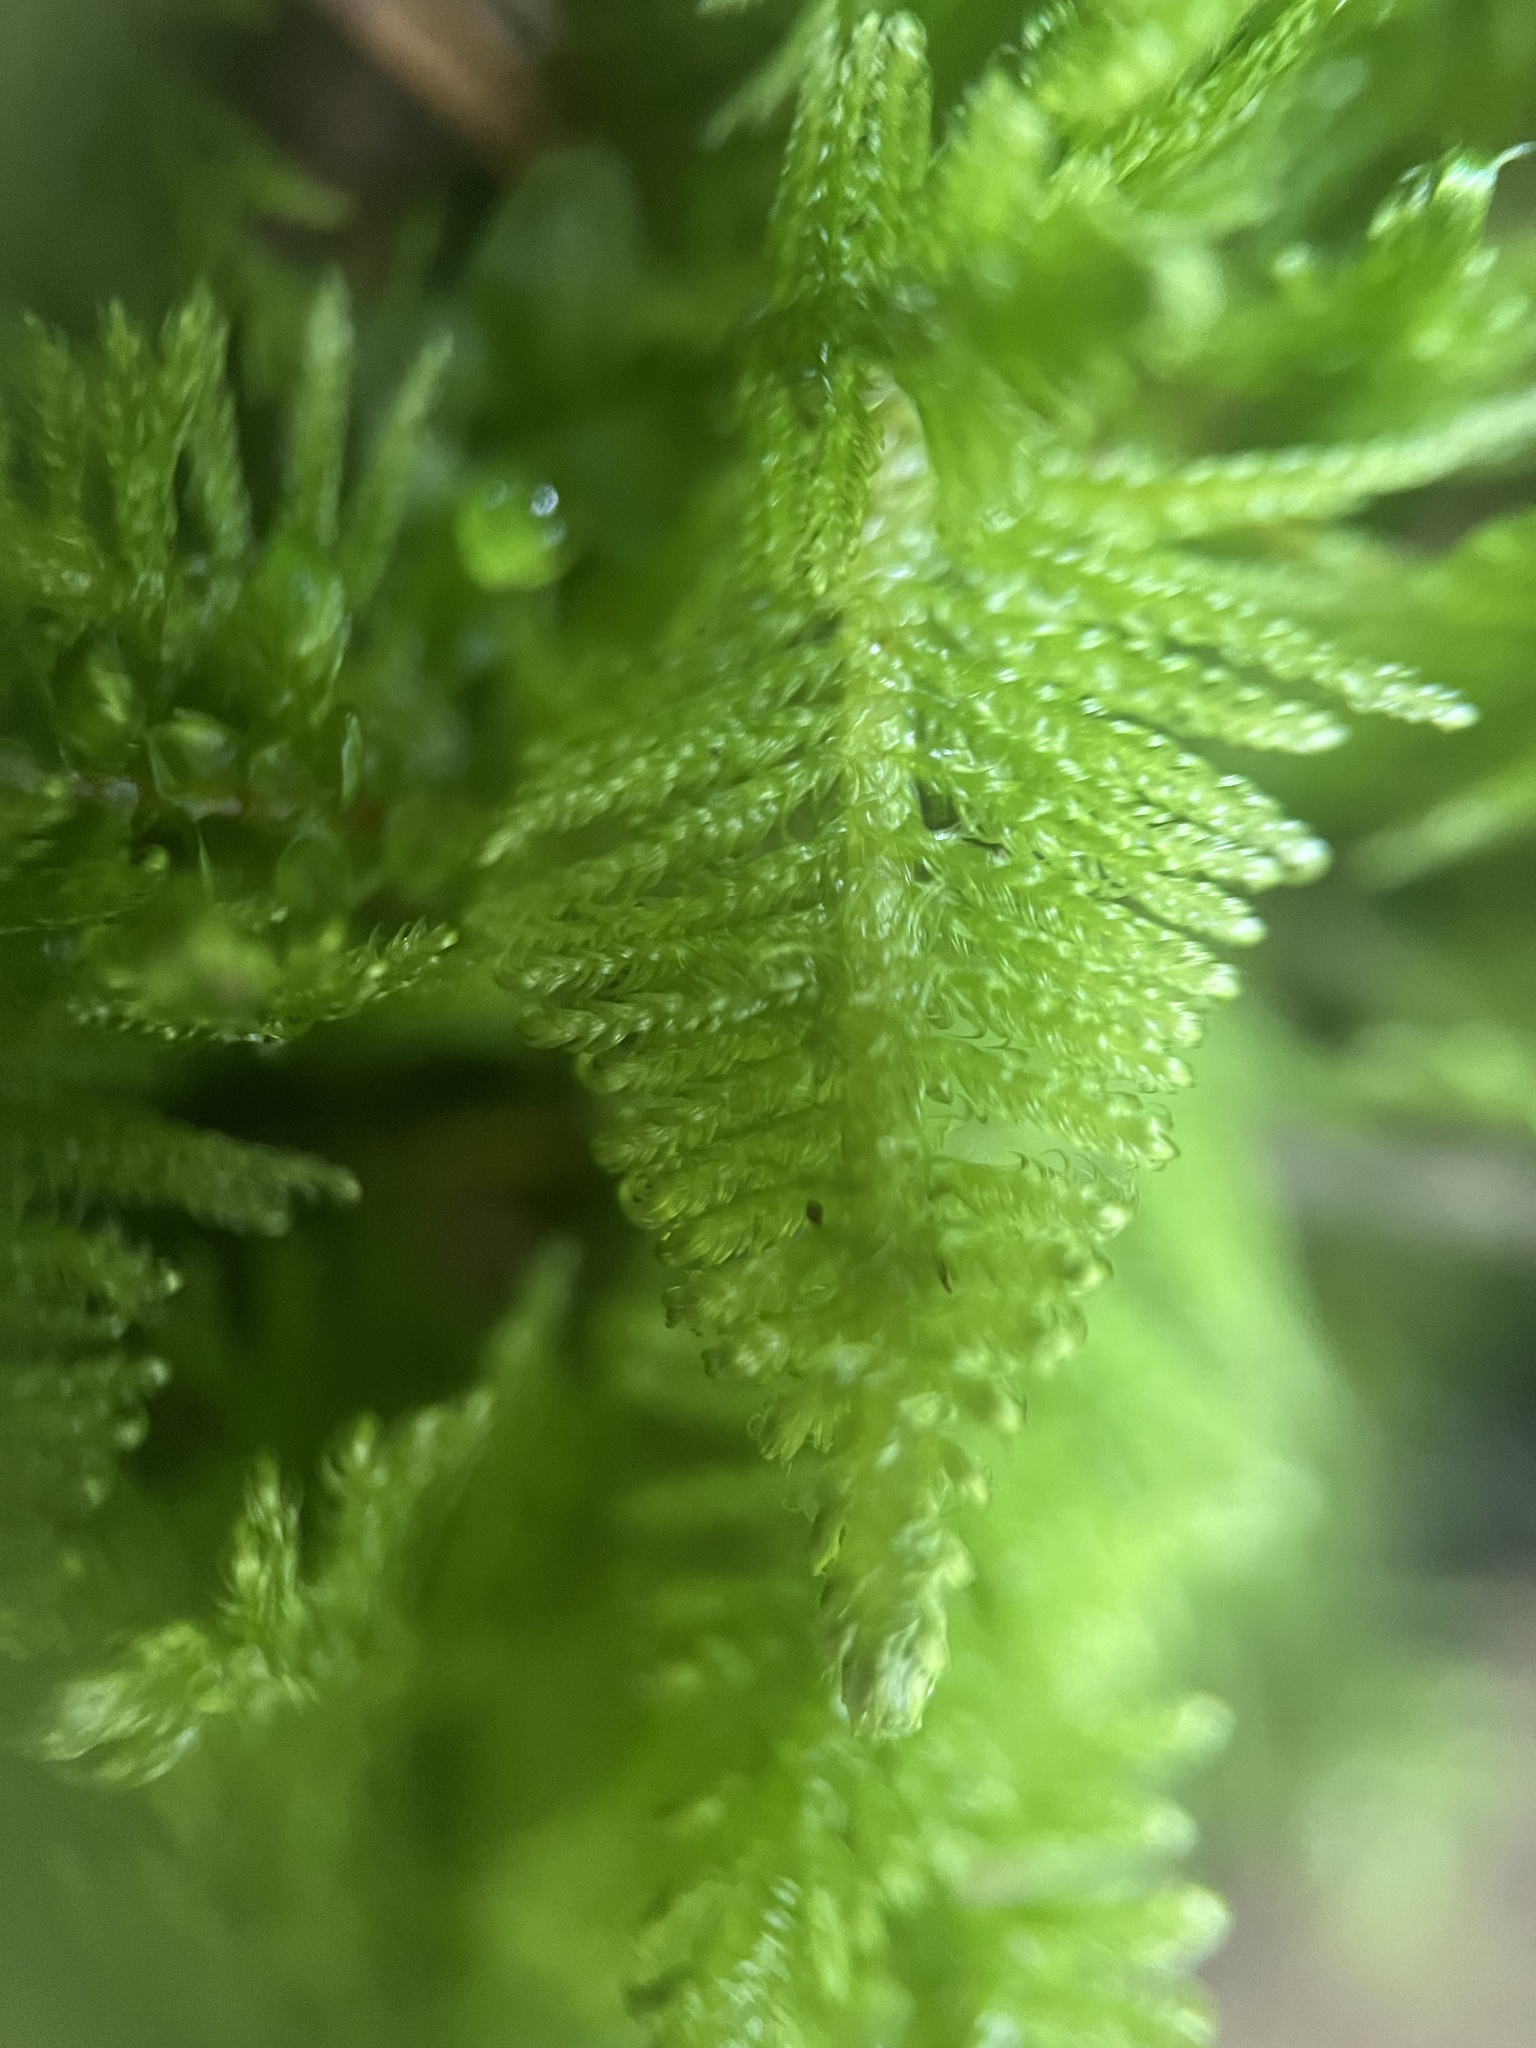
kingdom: Plantae
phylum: Bryophyta
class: Bryopsida
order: Hypnales
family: Pylaisiaceae
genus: Ptilium
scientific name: Ptilium crista-castrensis
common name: Knight's plume moss
